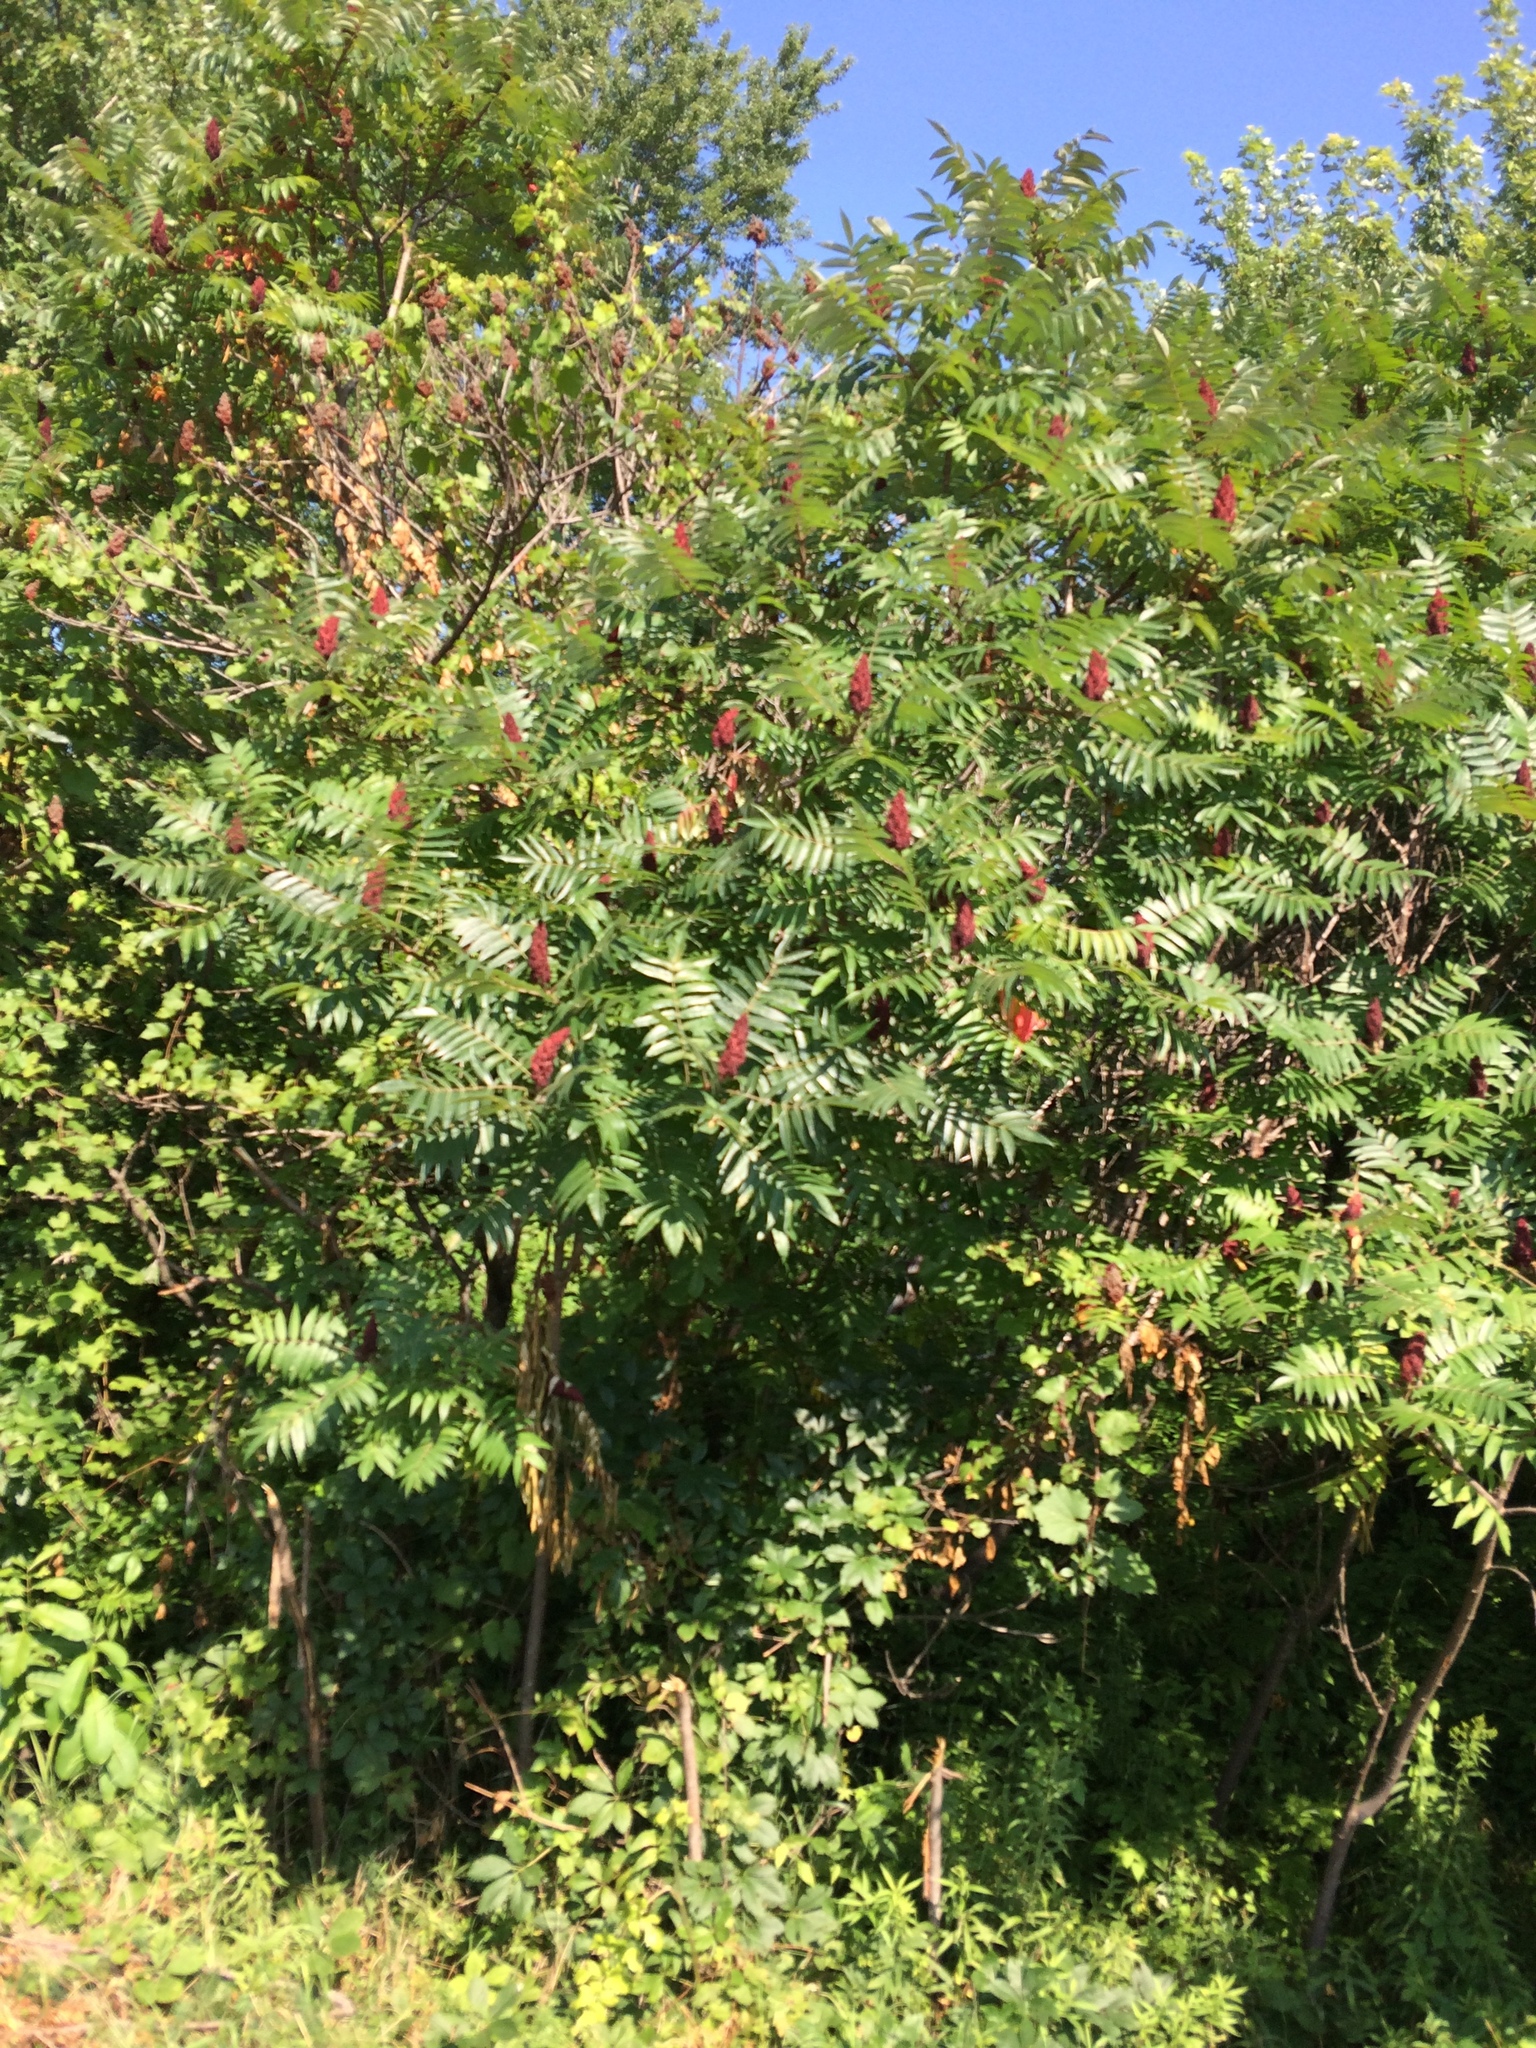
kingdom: Plantae
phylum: Tracheophyta
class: Magnoliopsida
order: Sapindales
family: Anacardiaceae
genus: Rhus
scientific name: Rhus typhina
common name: Staghorn sumac
